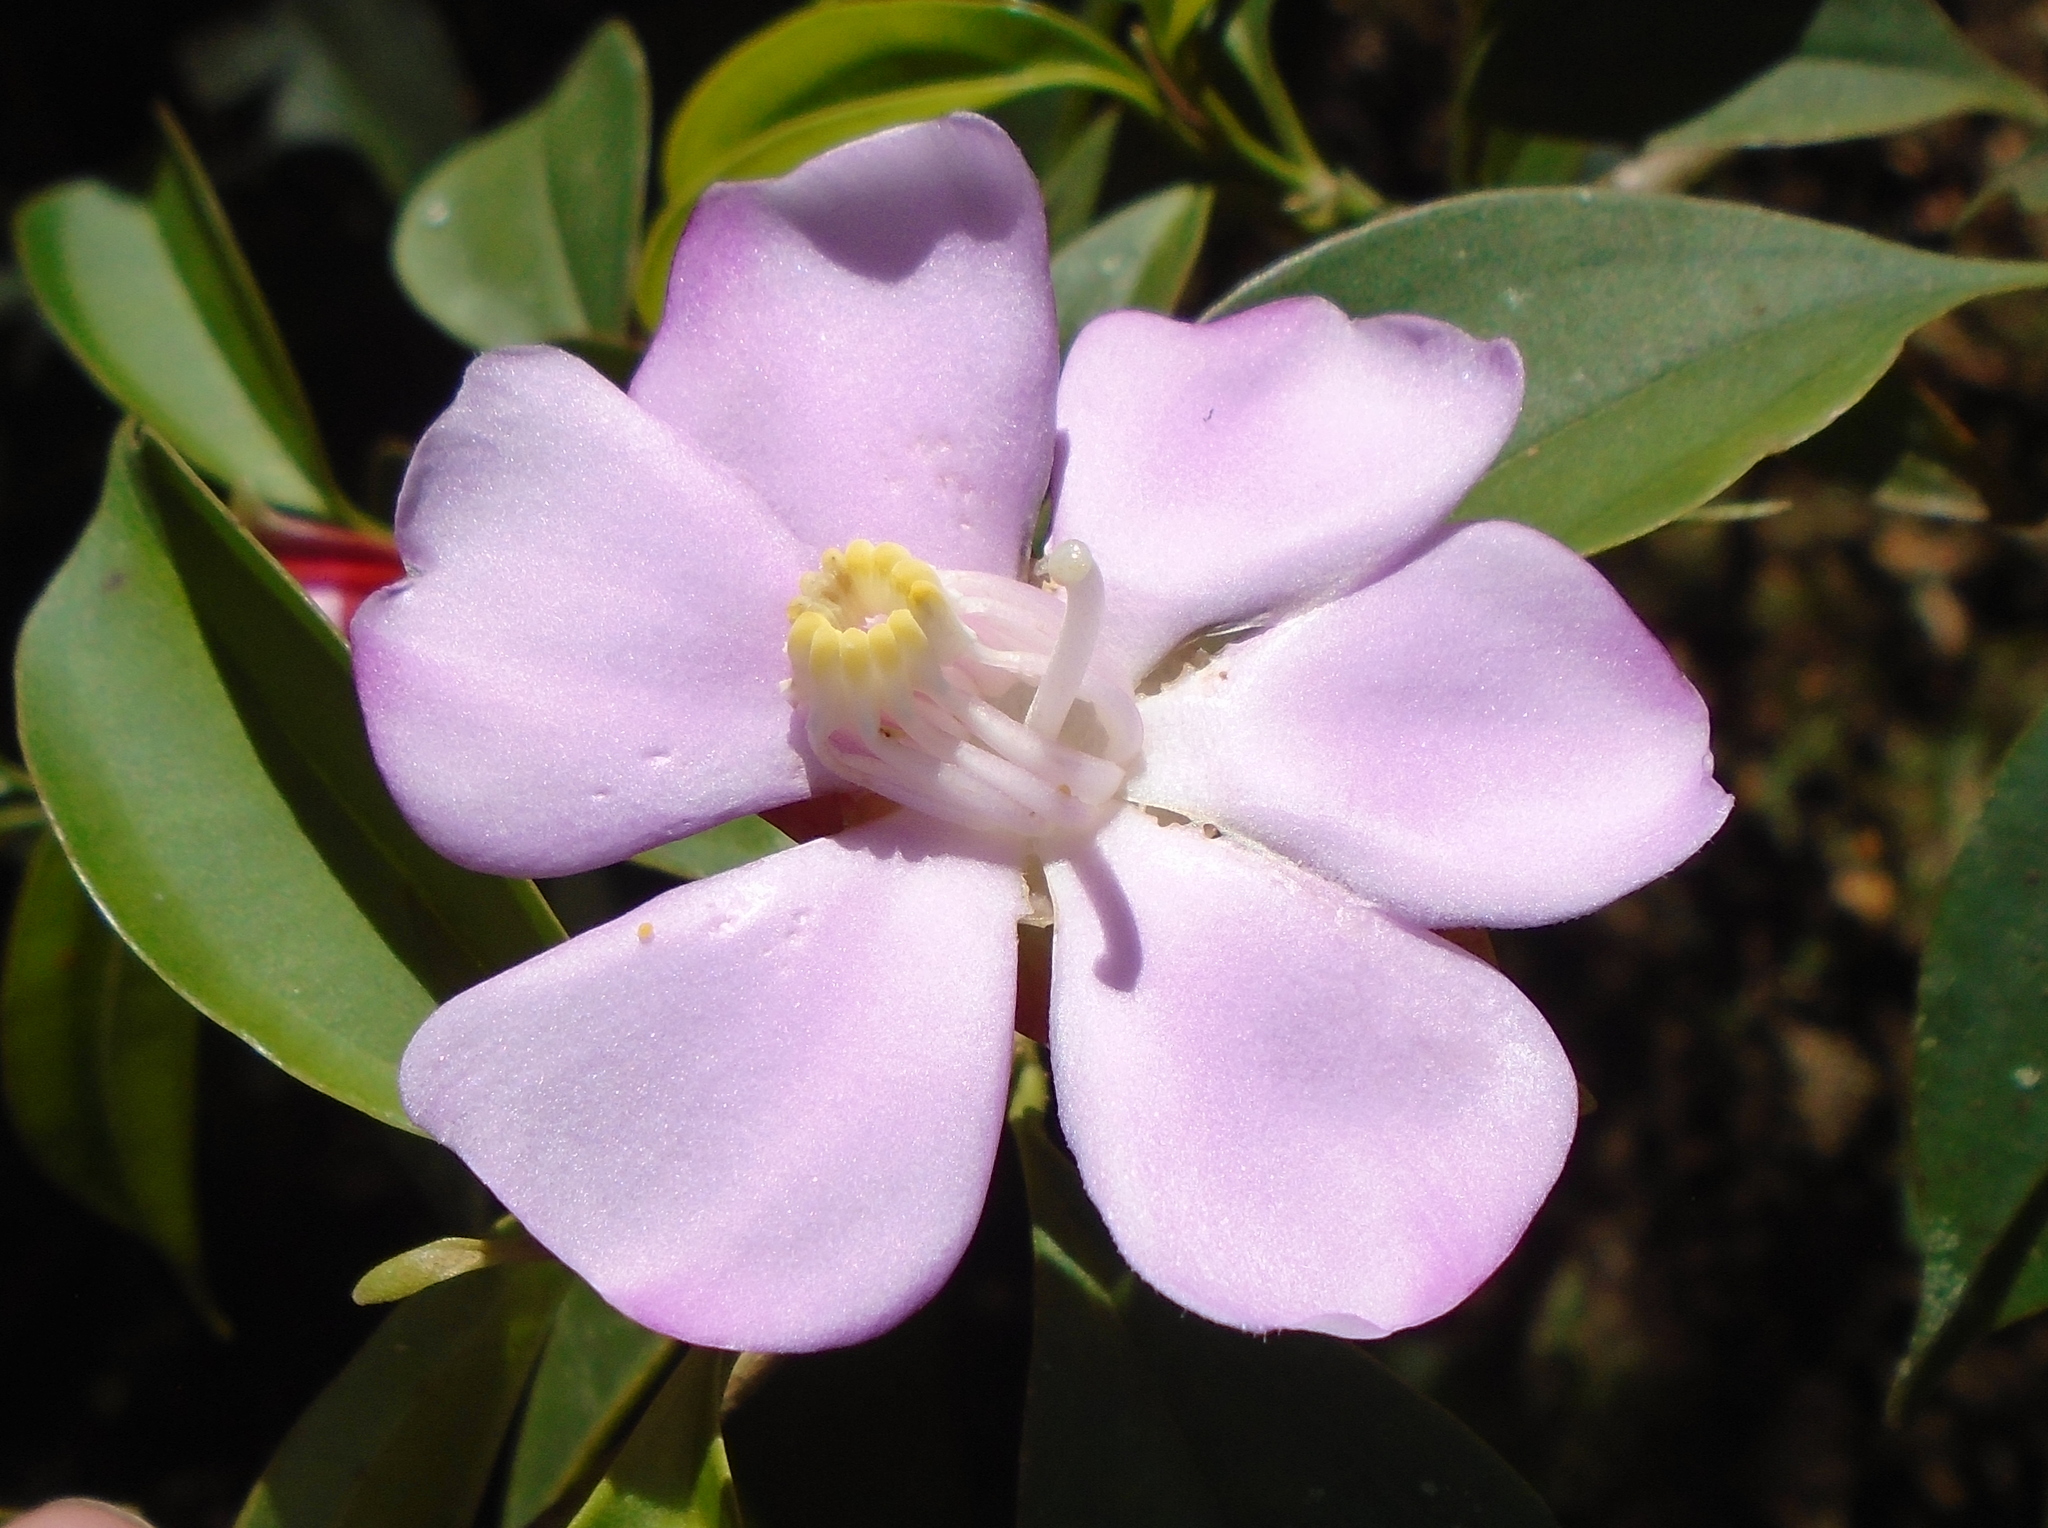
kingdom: Plantae
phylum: Tracheophyta
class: Magnoliopsida
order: Myrtales
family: Melastomataceae
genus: Blakea
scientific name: Blakea litoralis
